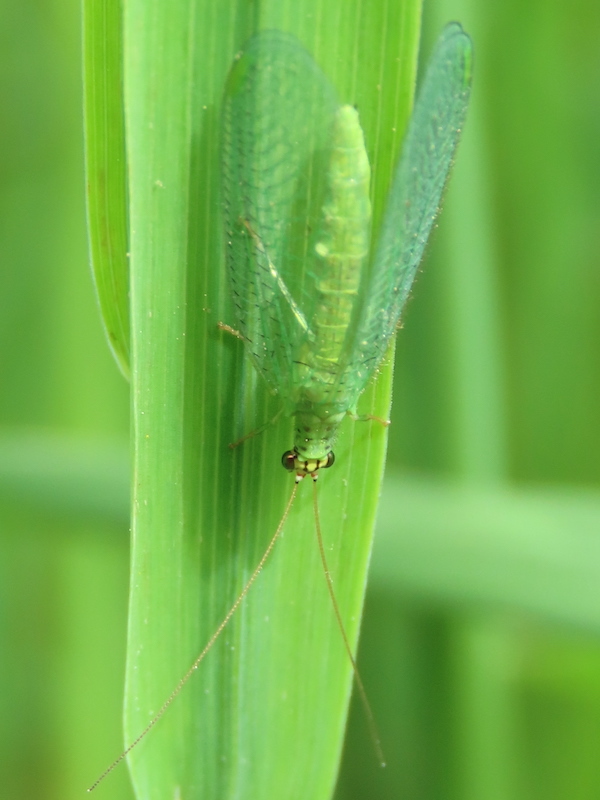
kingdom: Animalia
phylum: Arthropoda
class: Insecta
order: Neuroptera
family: Chrysopidae
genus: Chrysopa
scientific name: Chrysopa oculata
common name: Golden-eyed lacewing
